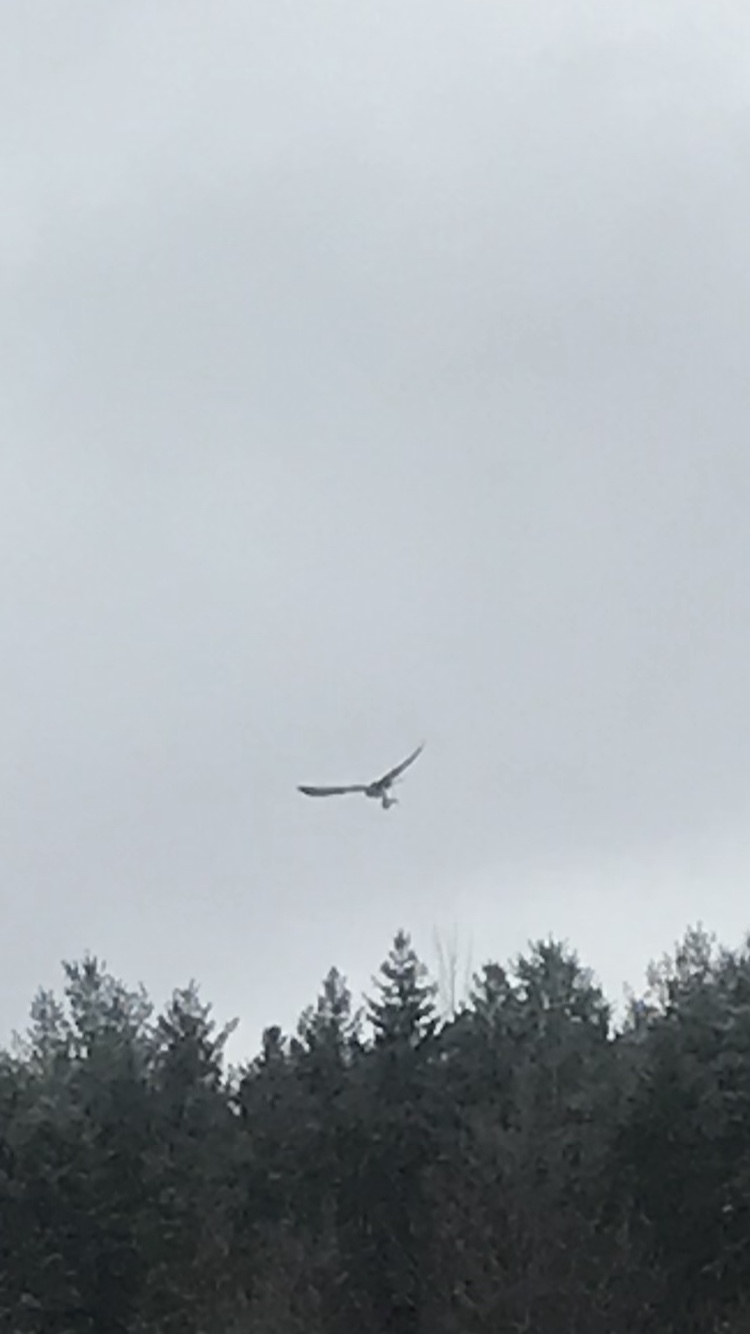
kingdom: Animalia
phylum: Chordata
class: Aves
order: Accipitriformes
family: Pandionidae
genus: Pandion
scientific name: Pandion haliaetus
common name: Osprey
